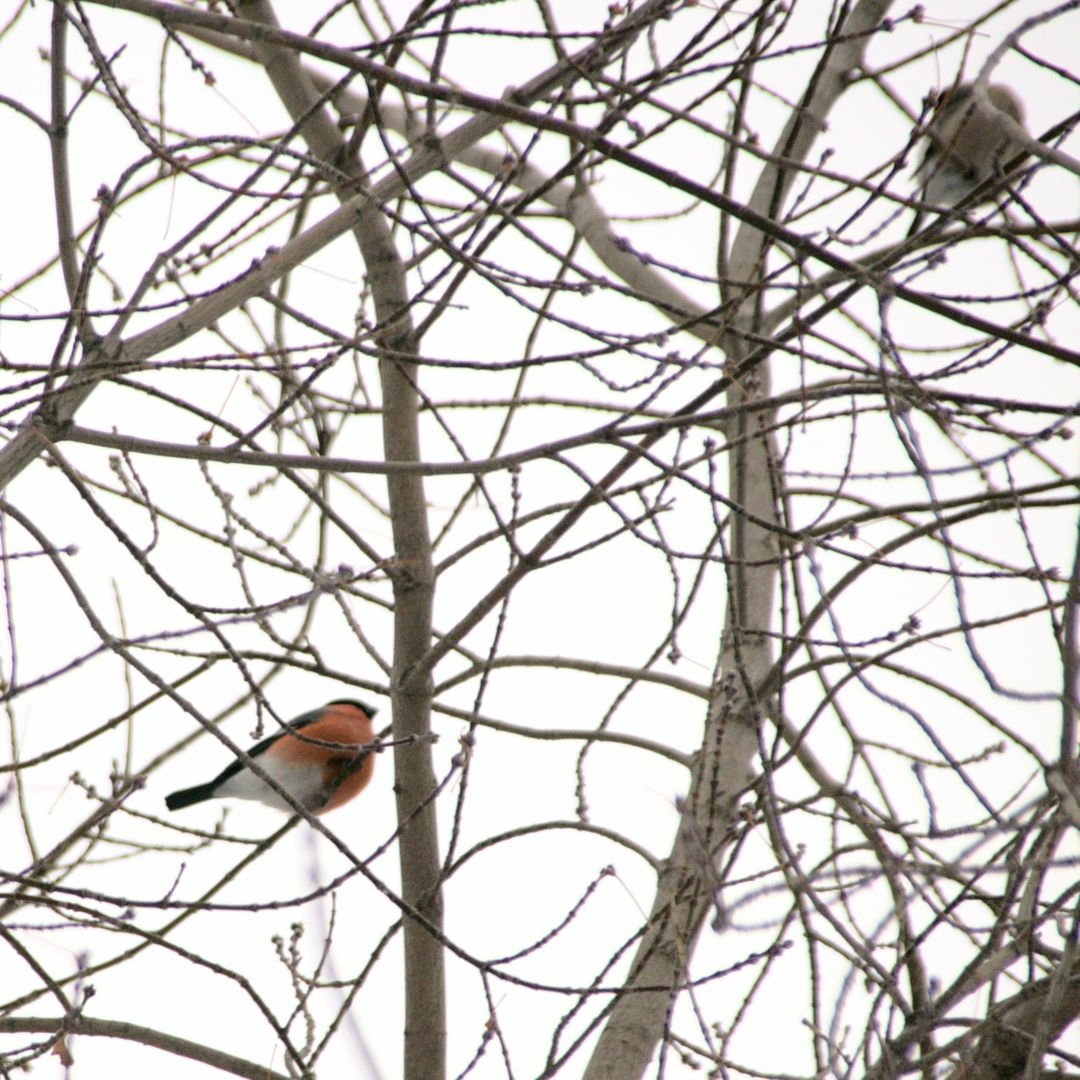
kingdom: Animalia
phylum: Chordata
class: Aves
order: Passeriformes
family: Fringillidae
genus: Pyrrhula
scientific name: Pyrrhula pyrrhula
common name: Eurasian bullfinch
